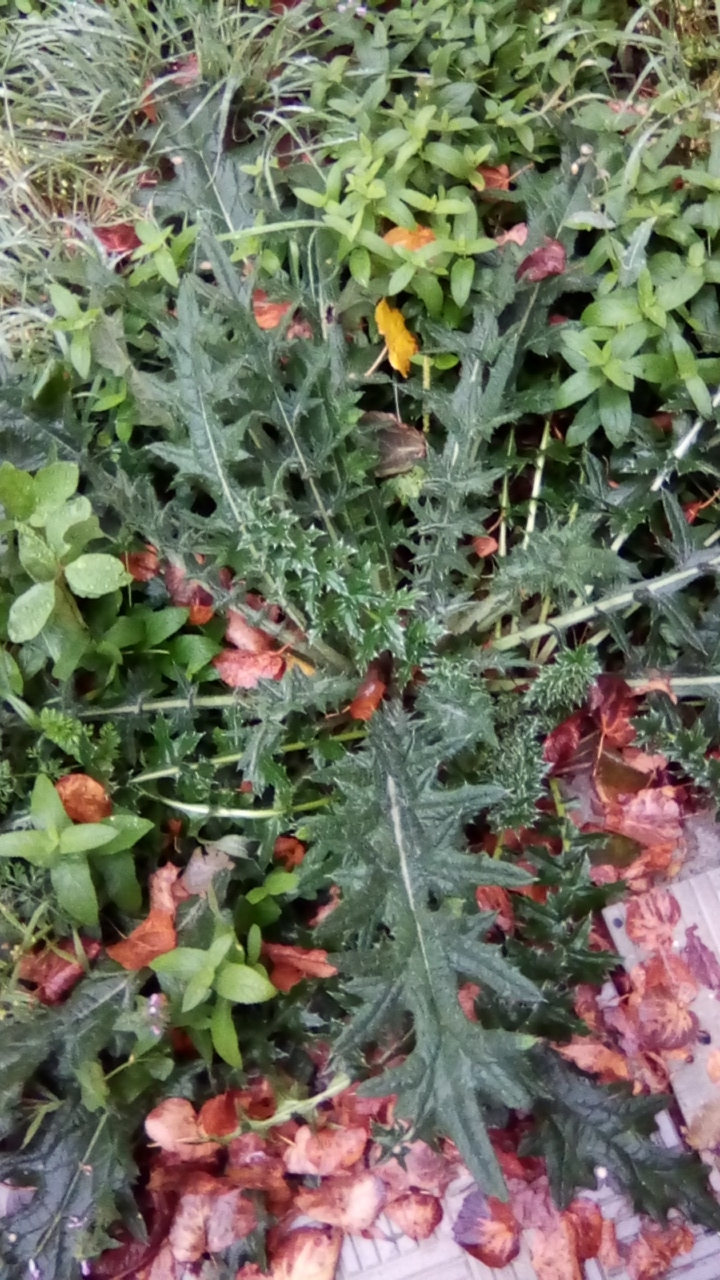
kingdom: Plantae
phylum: Tracheophyta
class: Magnoliopsida
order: Asterales
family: Asteraceae
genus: Cirsium
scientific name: Cirsium vulgare
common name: Bull thistle
